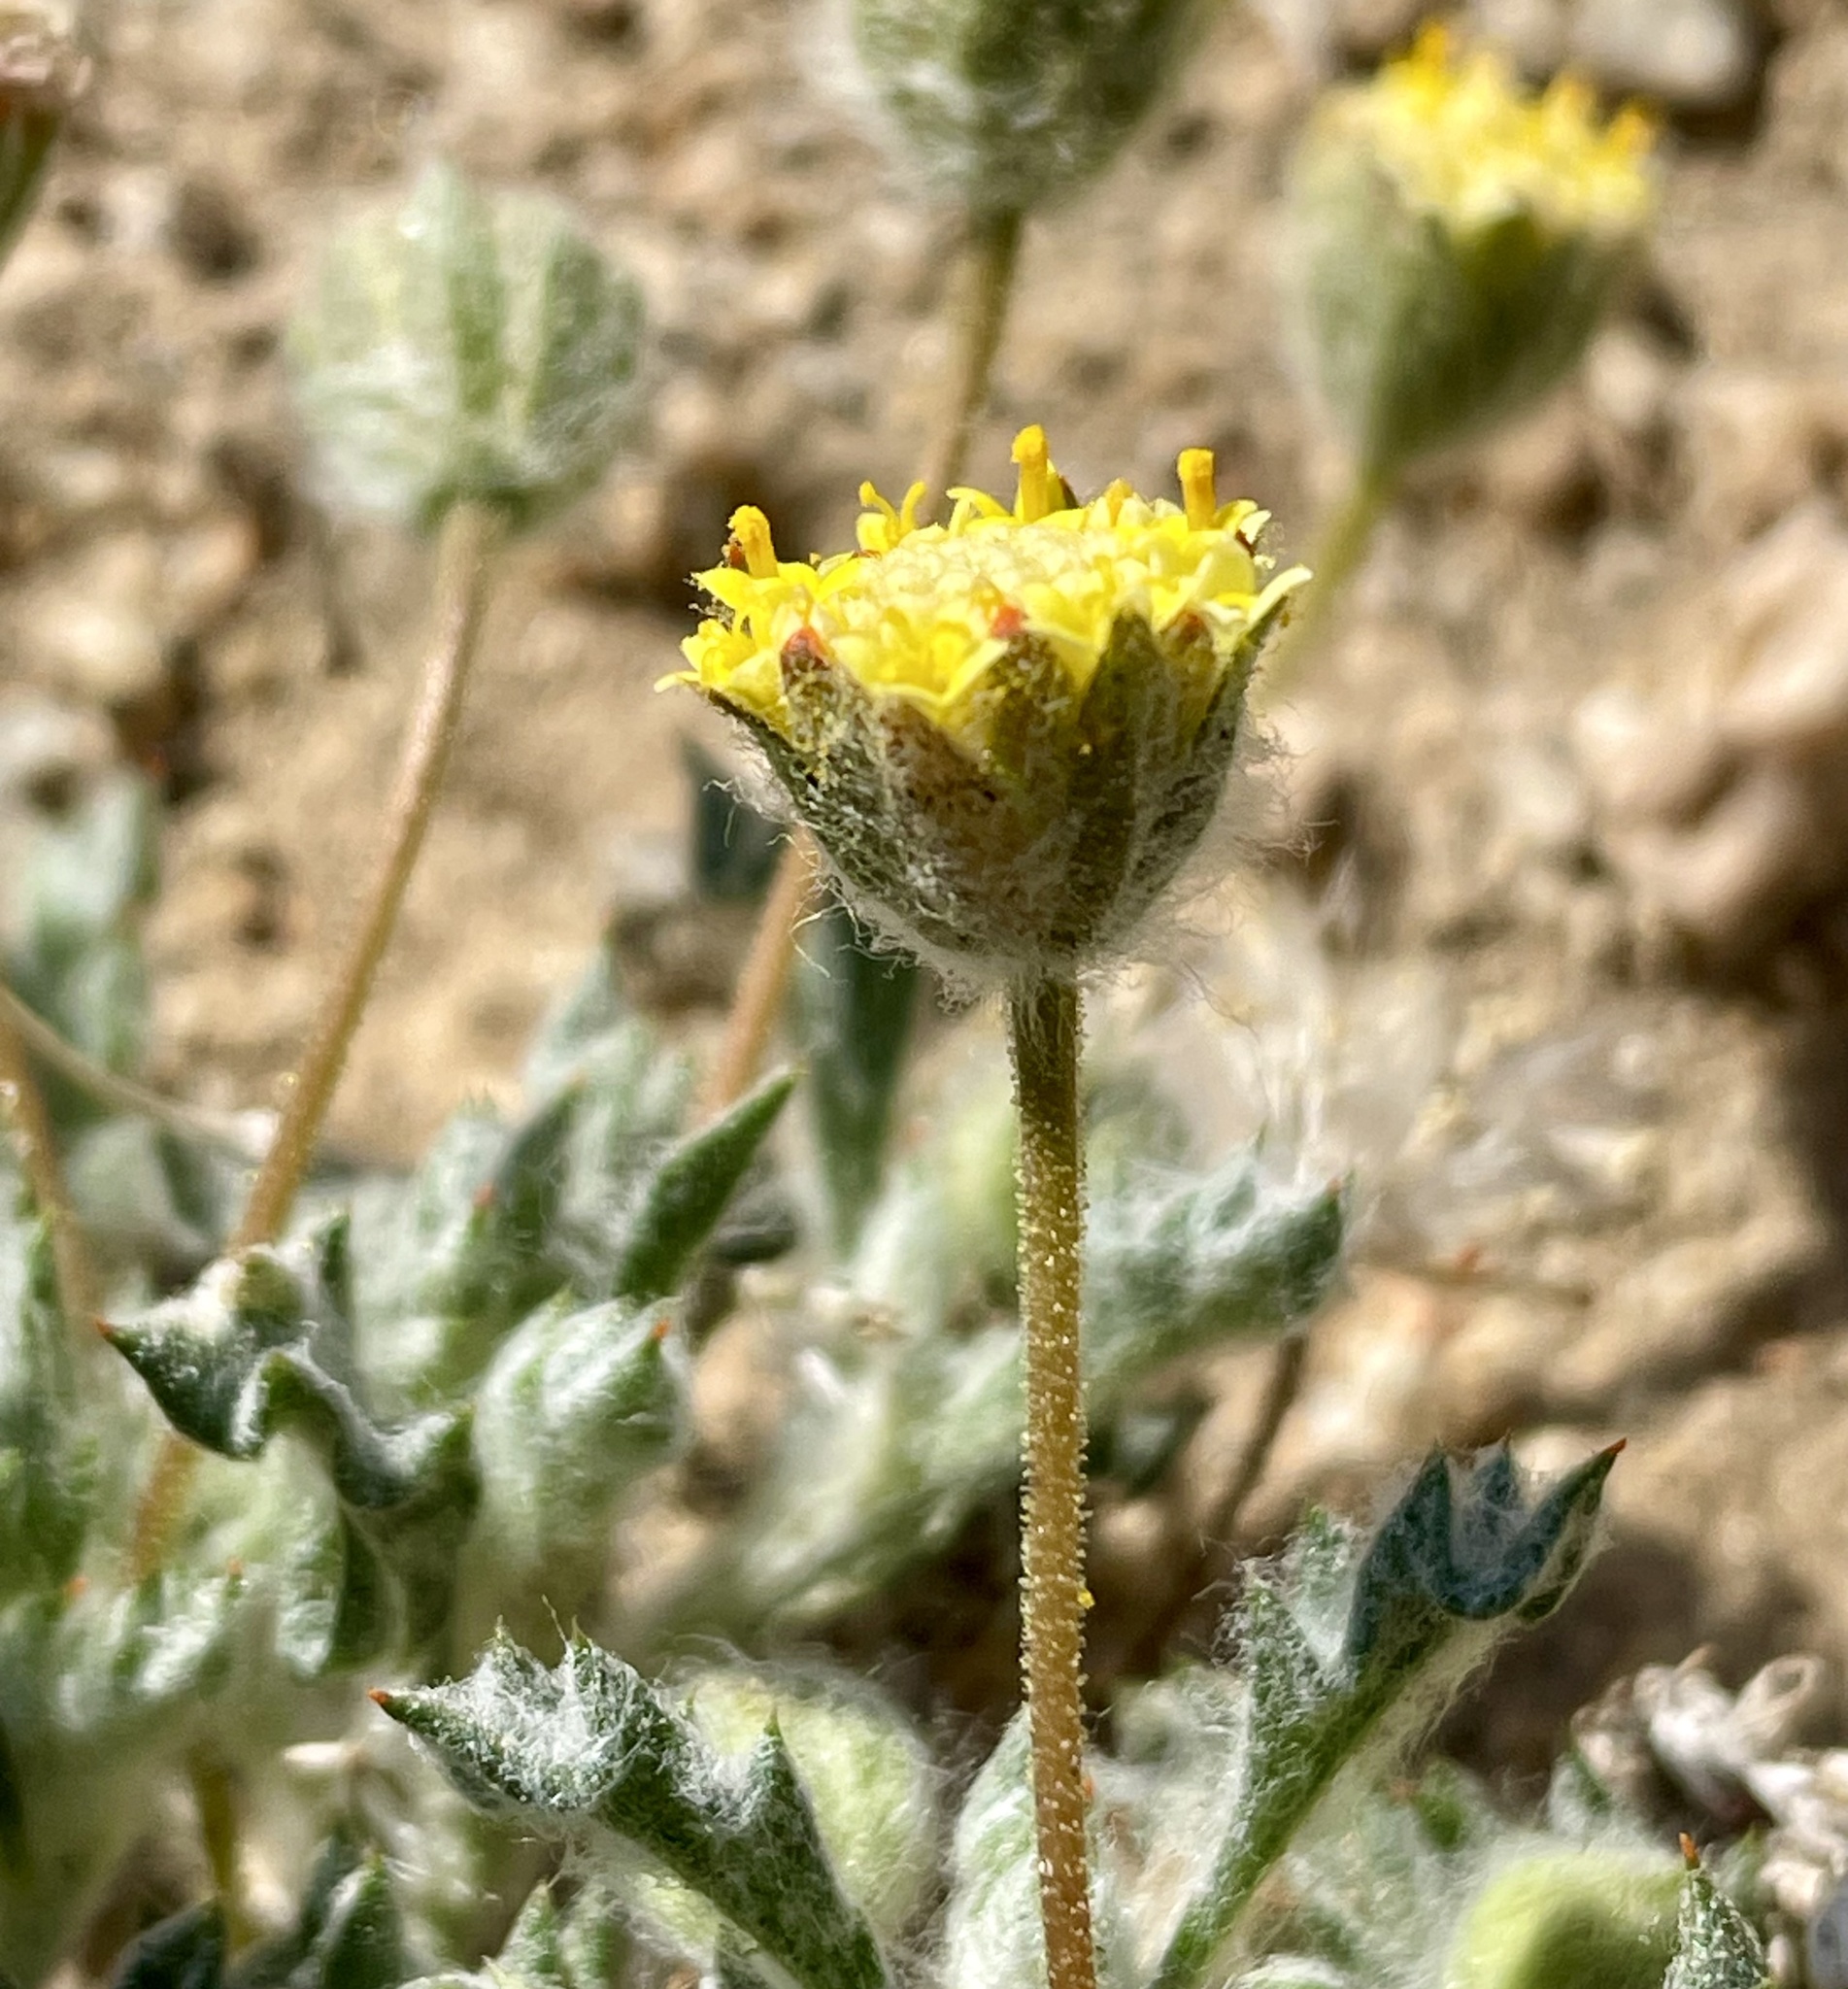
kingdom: Plantae
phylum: Tracheophyta
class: Magnoliopsida
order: Asterales
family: Asteraceae
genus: Trichoptilium
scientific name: Trichoptilium incisum
